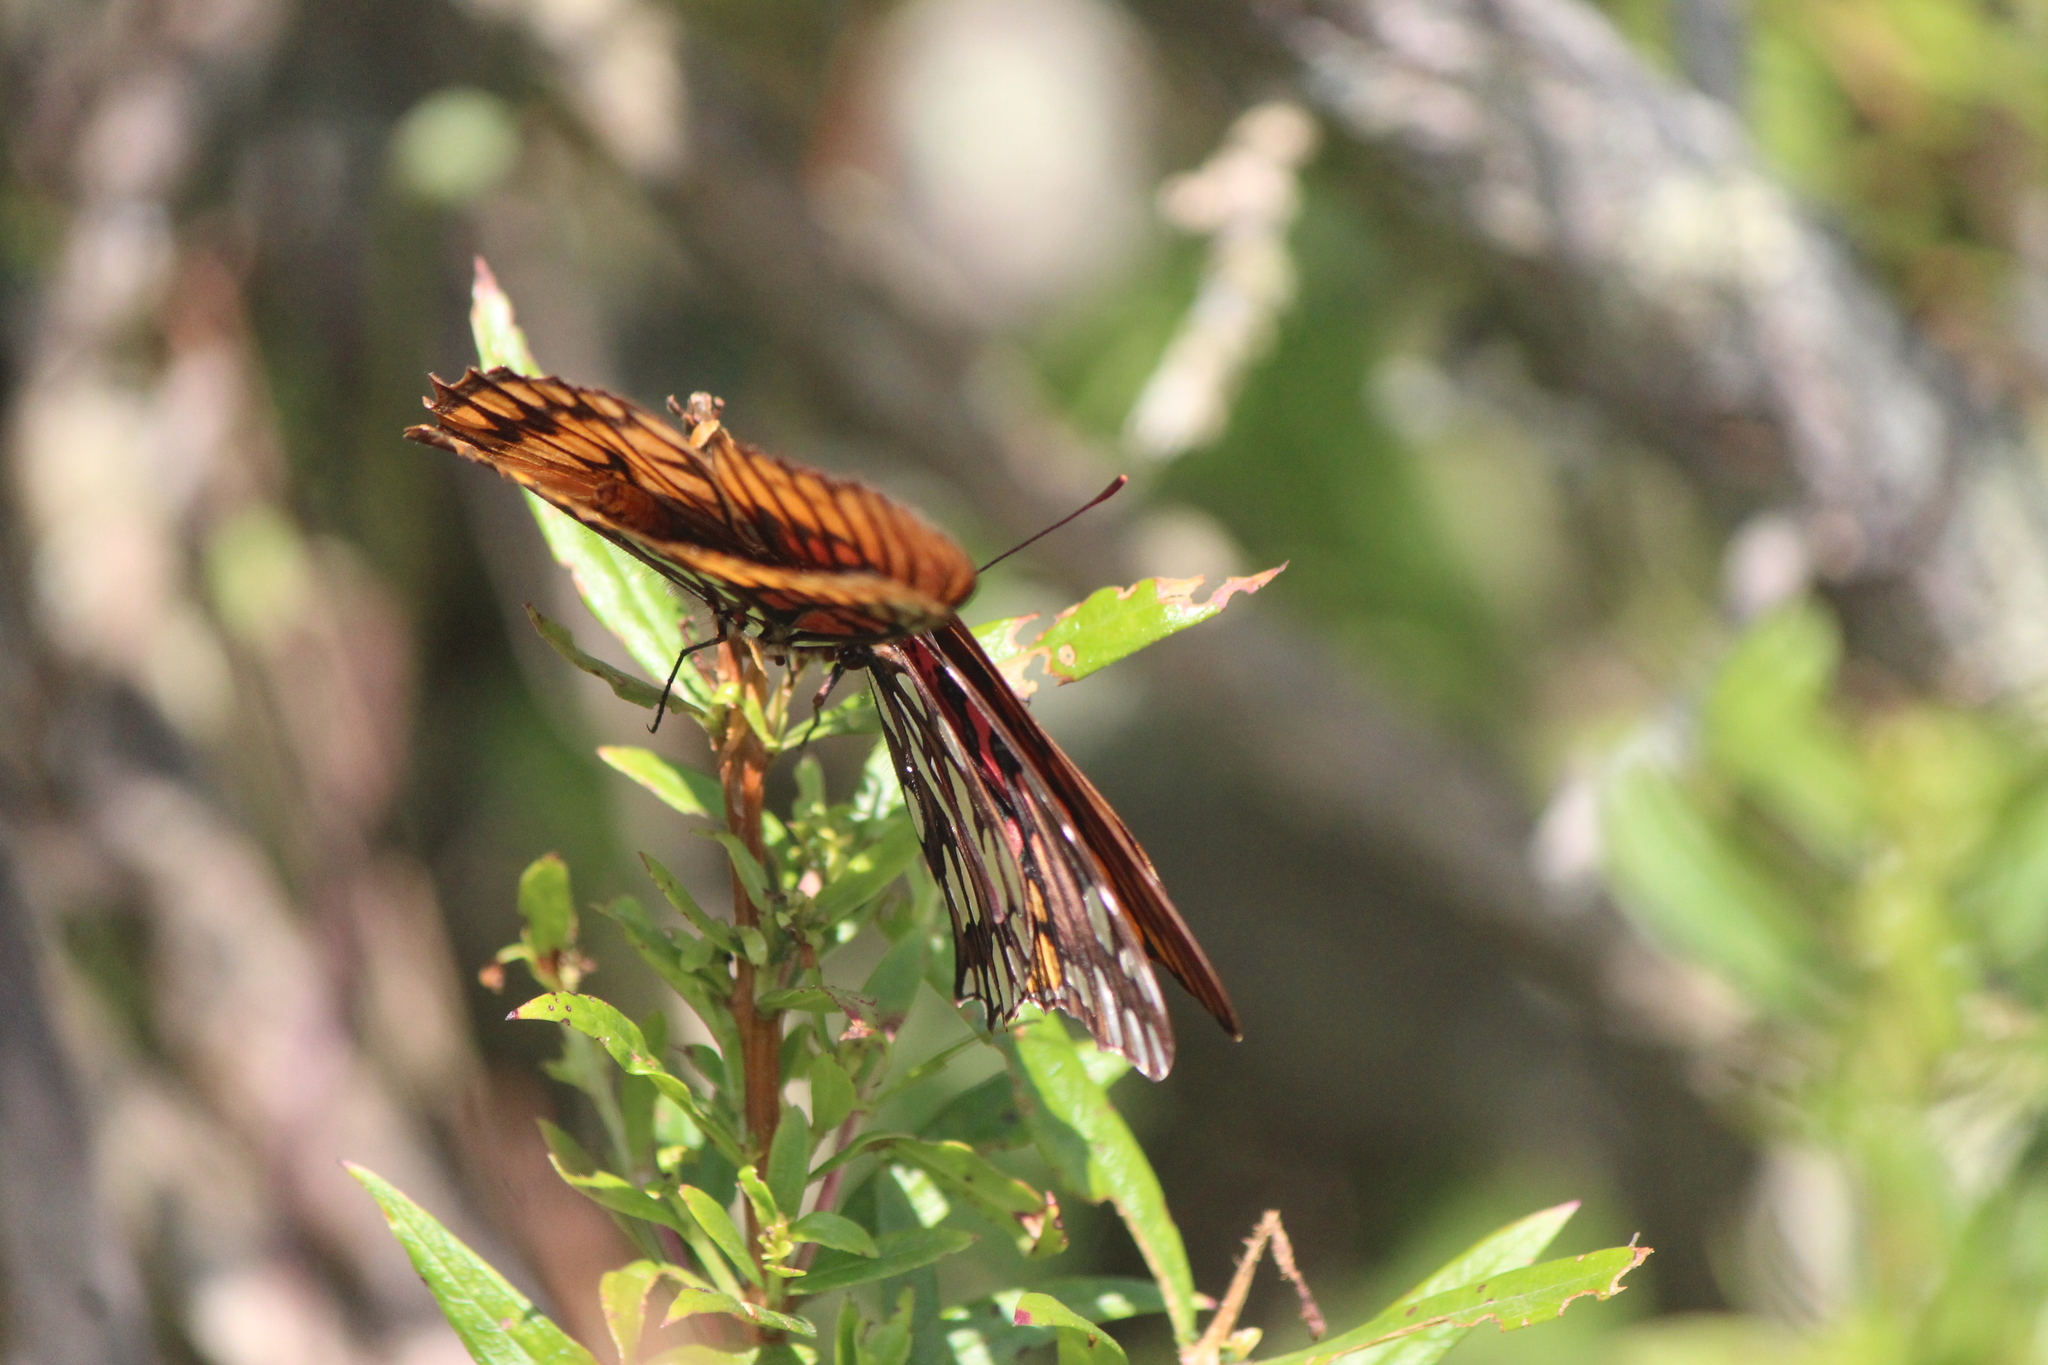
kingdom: Animalia
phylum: Arthropoda
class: Insecta
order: Lepidoptera
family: Nymphalidae
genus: Dione
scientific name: Dione moneta
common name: Mexican silverspot
